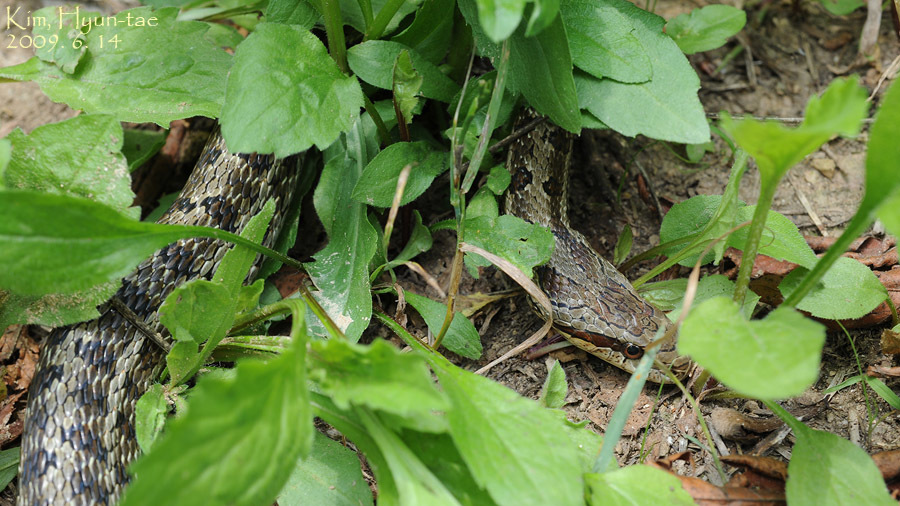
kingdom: Animalia
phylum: Chordata
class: Squamata
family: Colubridae
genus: Elaphe
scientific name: Elaphe dione
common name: Dione ratsnake
